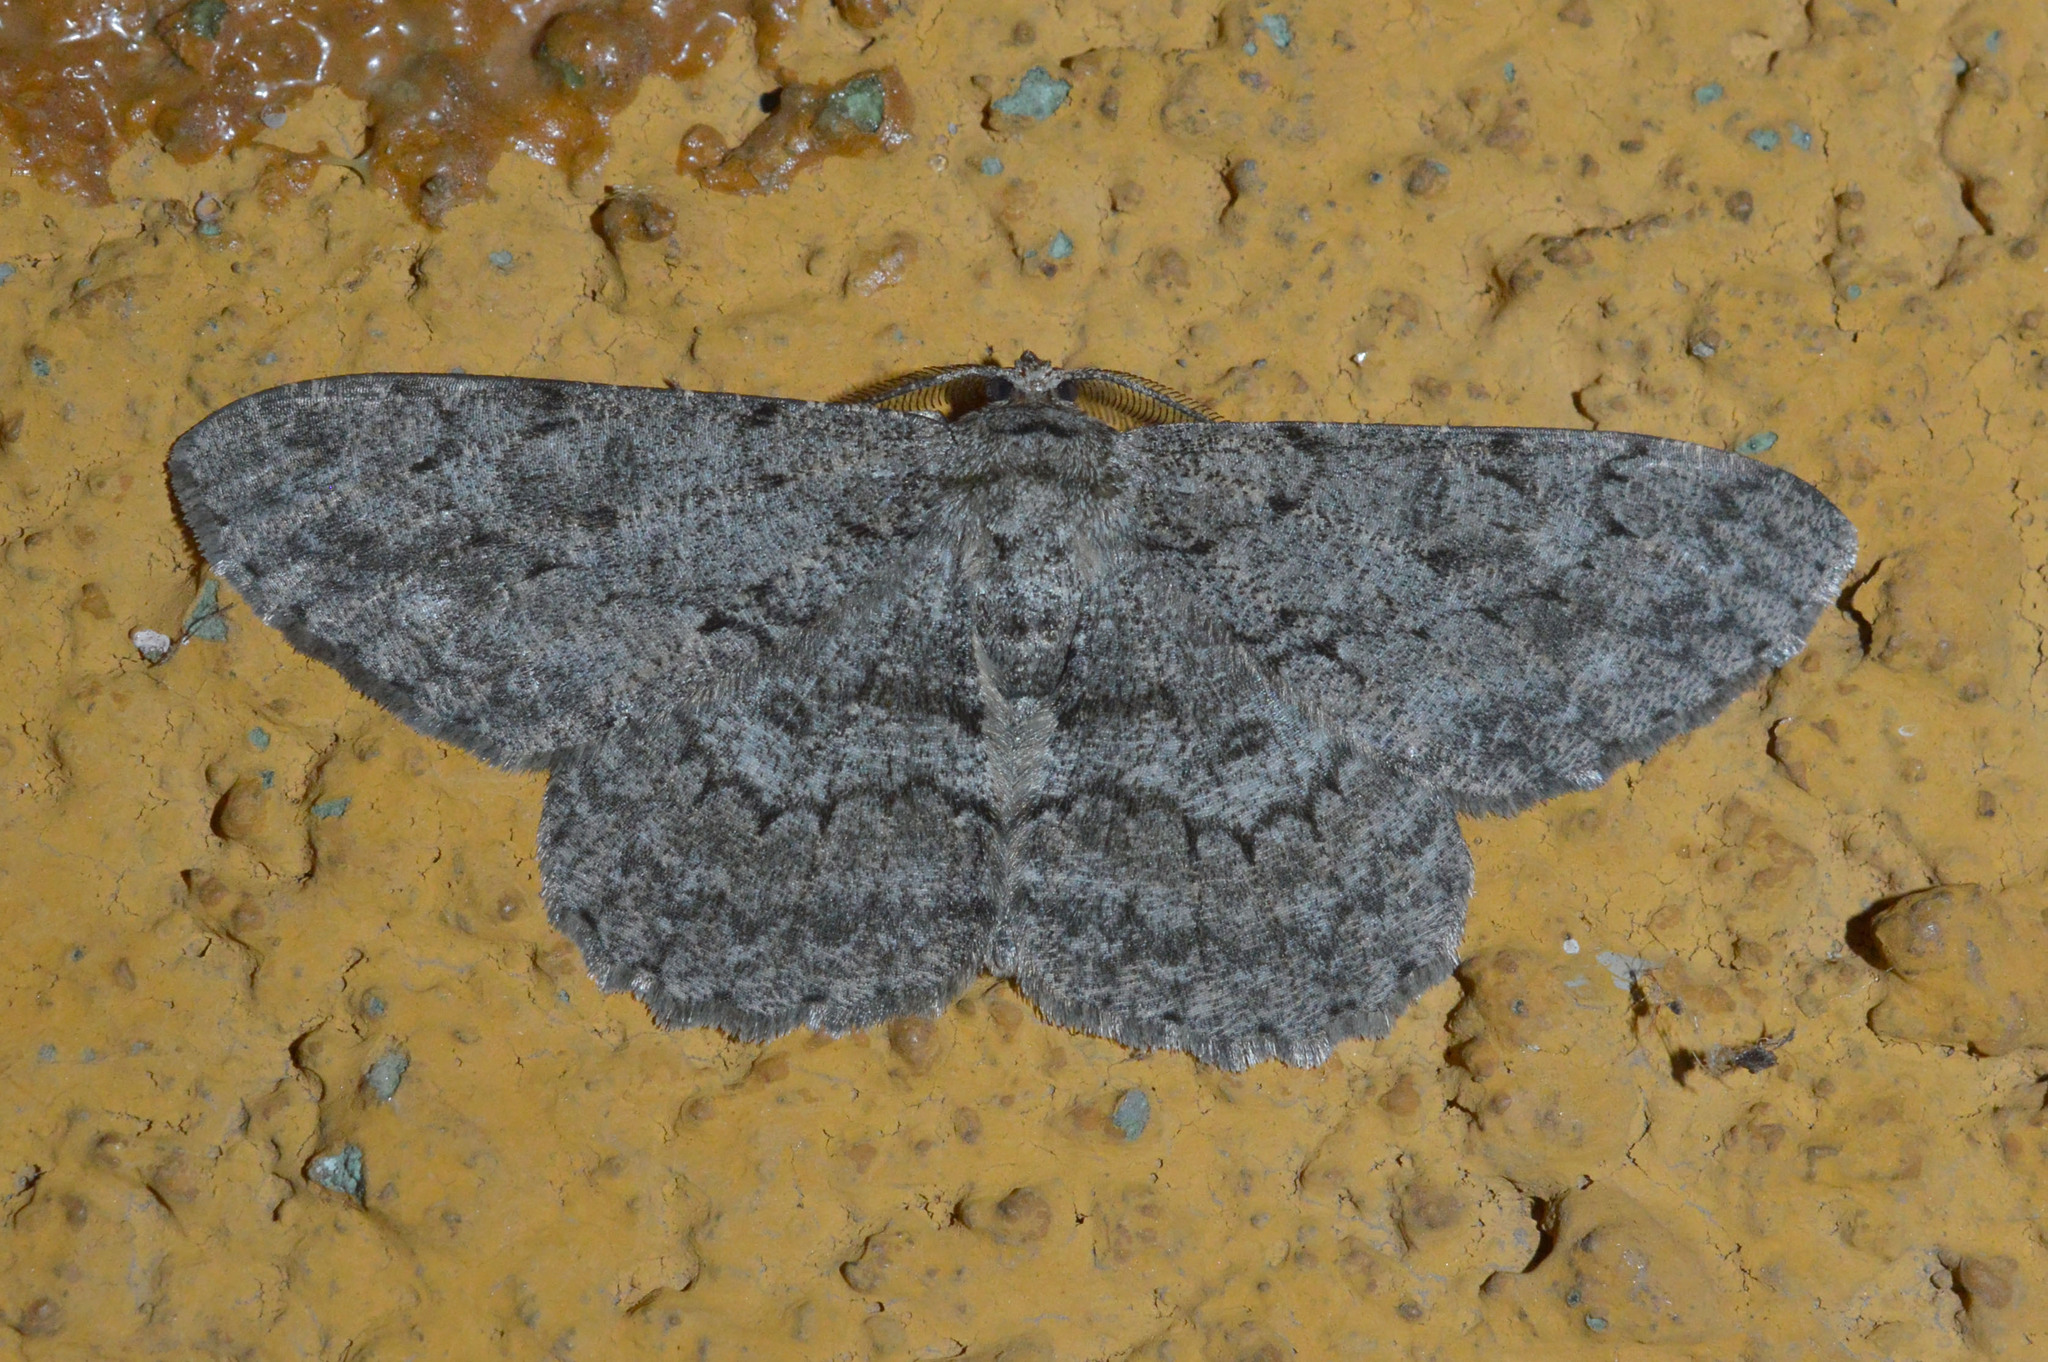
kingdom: Animalia
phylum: Arthropoda
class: Insecta
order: Lepidoptera
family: Geometridae
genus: Hypomecis
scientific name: Hypomecis punctinalis
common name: Pale oak beauty
